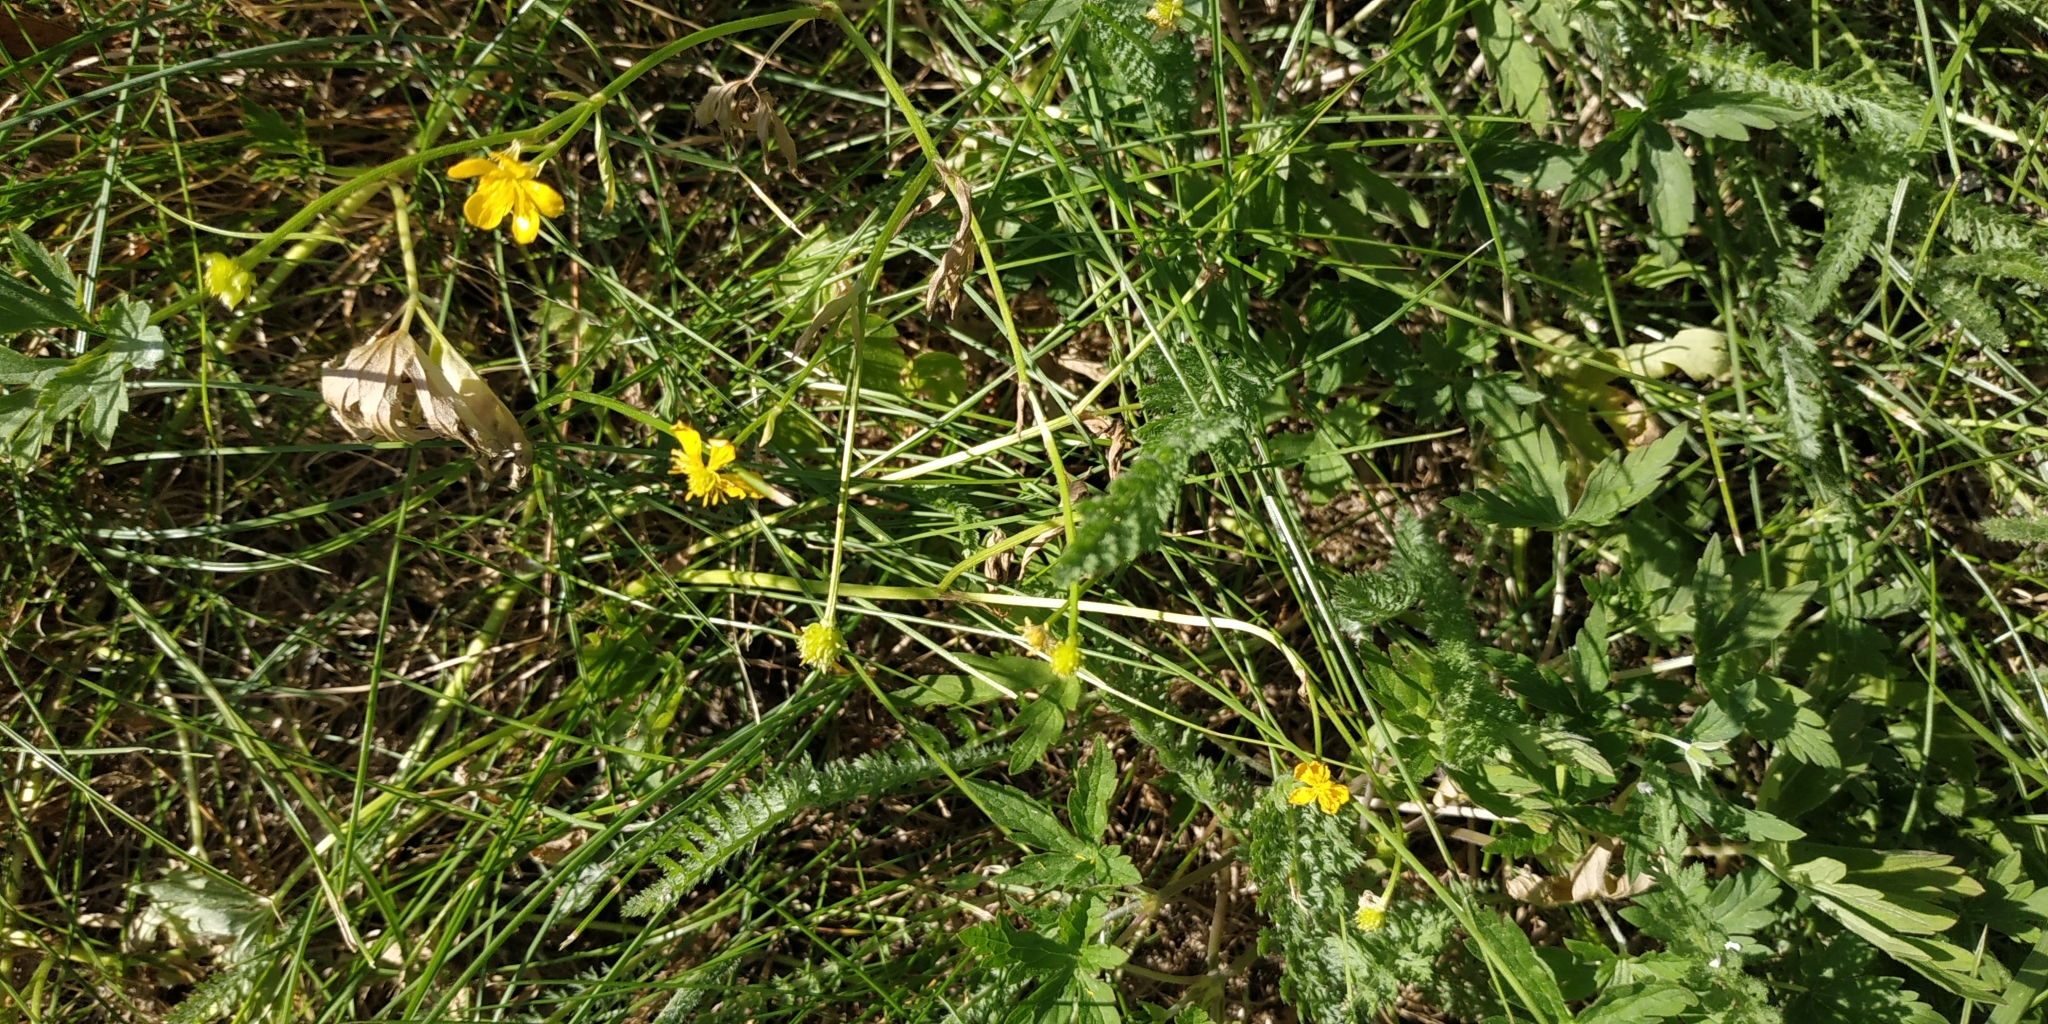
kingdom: Plantae
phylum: Tracheophyta
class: Magnoliopsida
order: Ranunculales
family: Ranunculaceae
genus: Ranunculus
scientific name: Ranunculus acris
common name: Meadow buttercup
